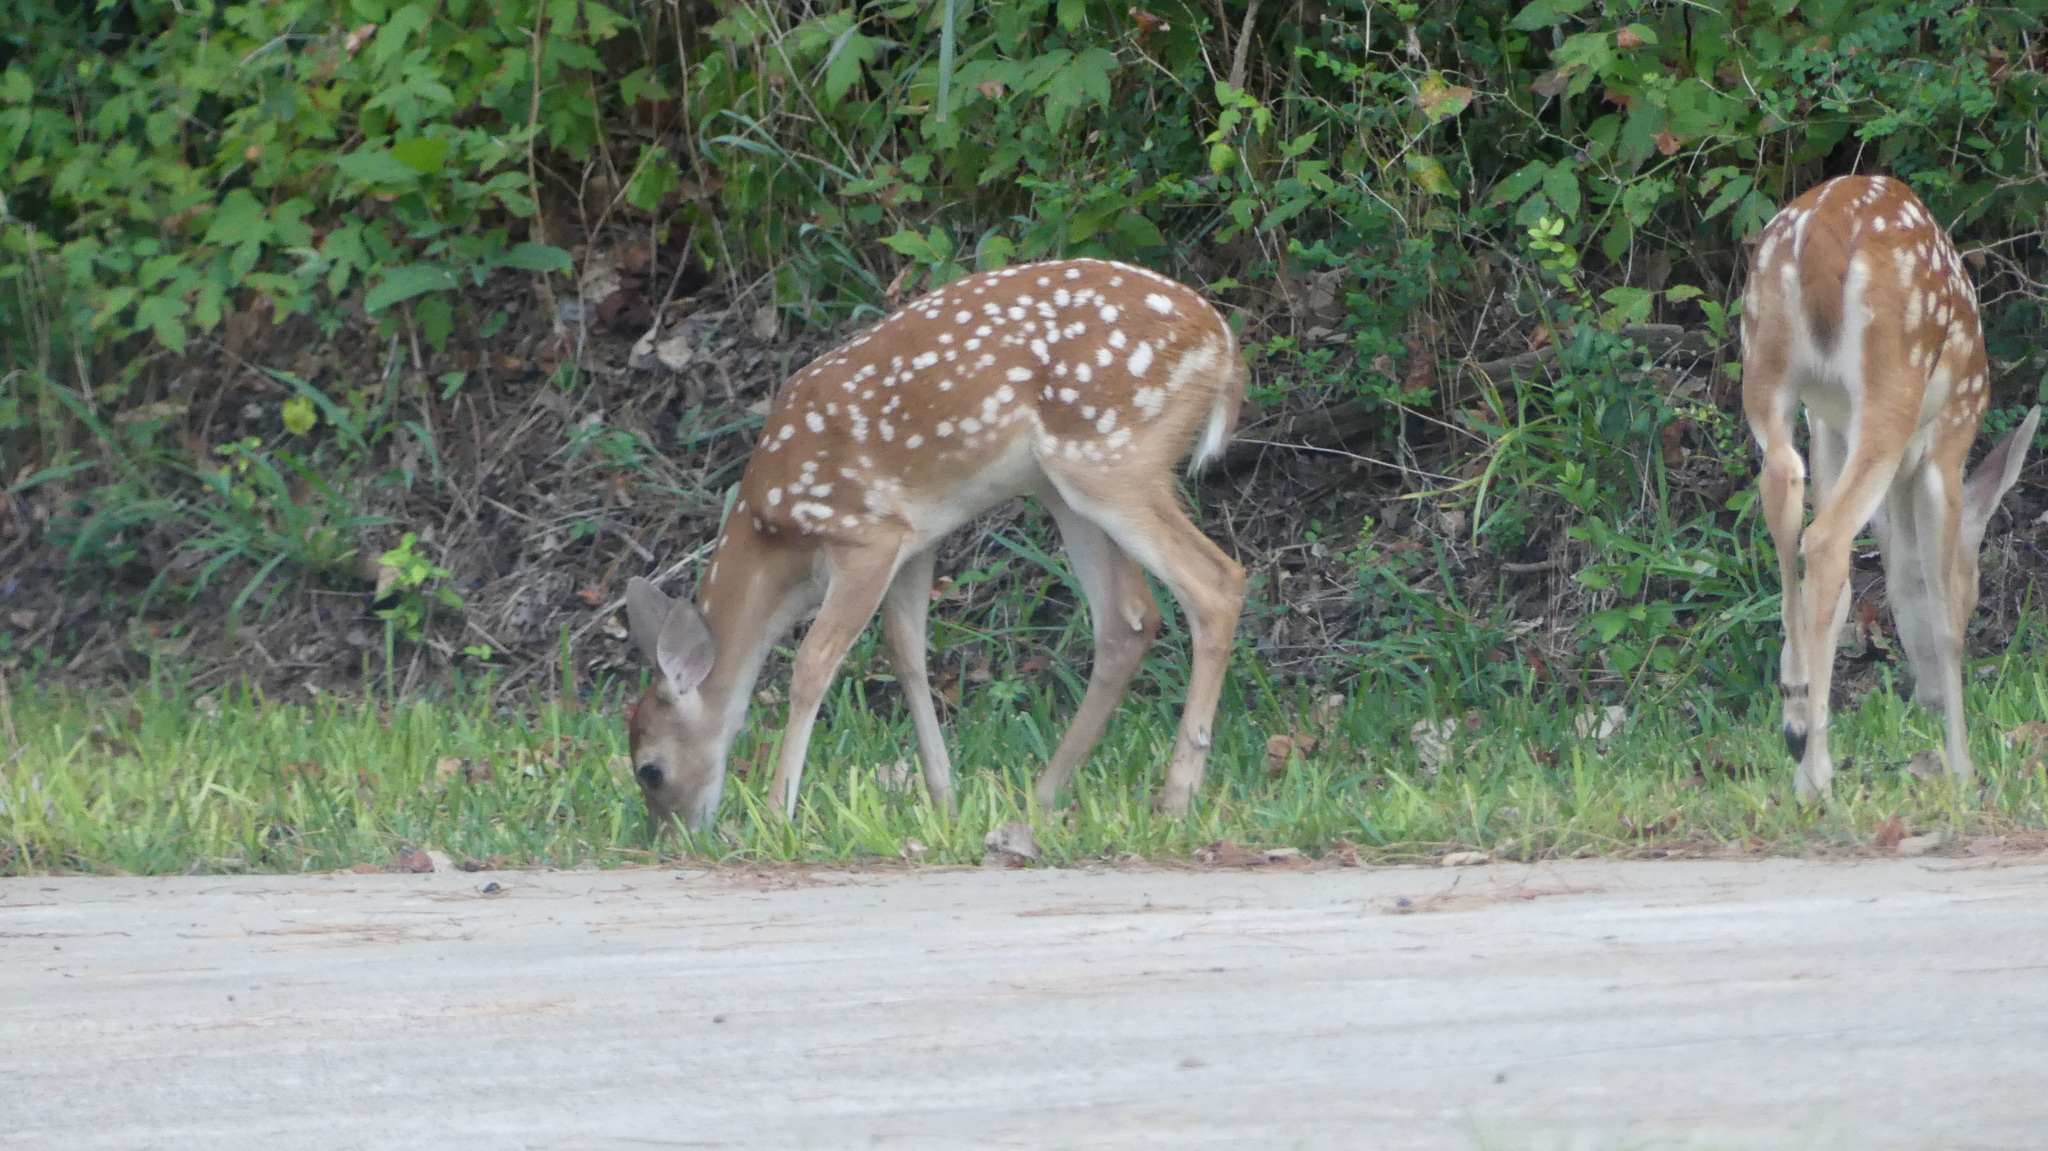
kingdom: Animalia
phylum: Chordata
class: Mammalia
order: Artiodactyla
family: Cervidae
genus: Odocoileus
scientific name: Odocoileus virginianus
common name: White-tailed deer
